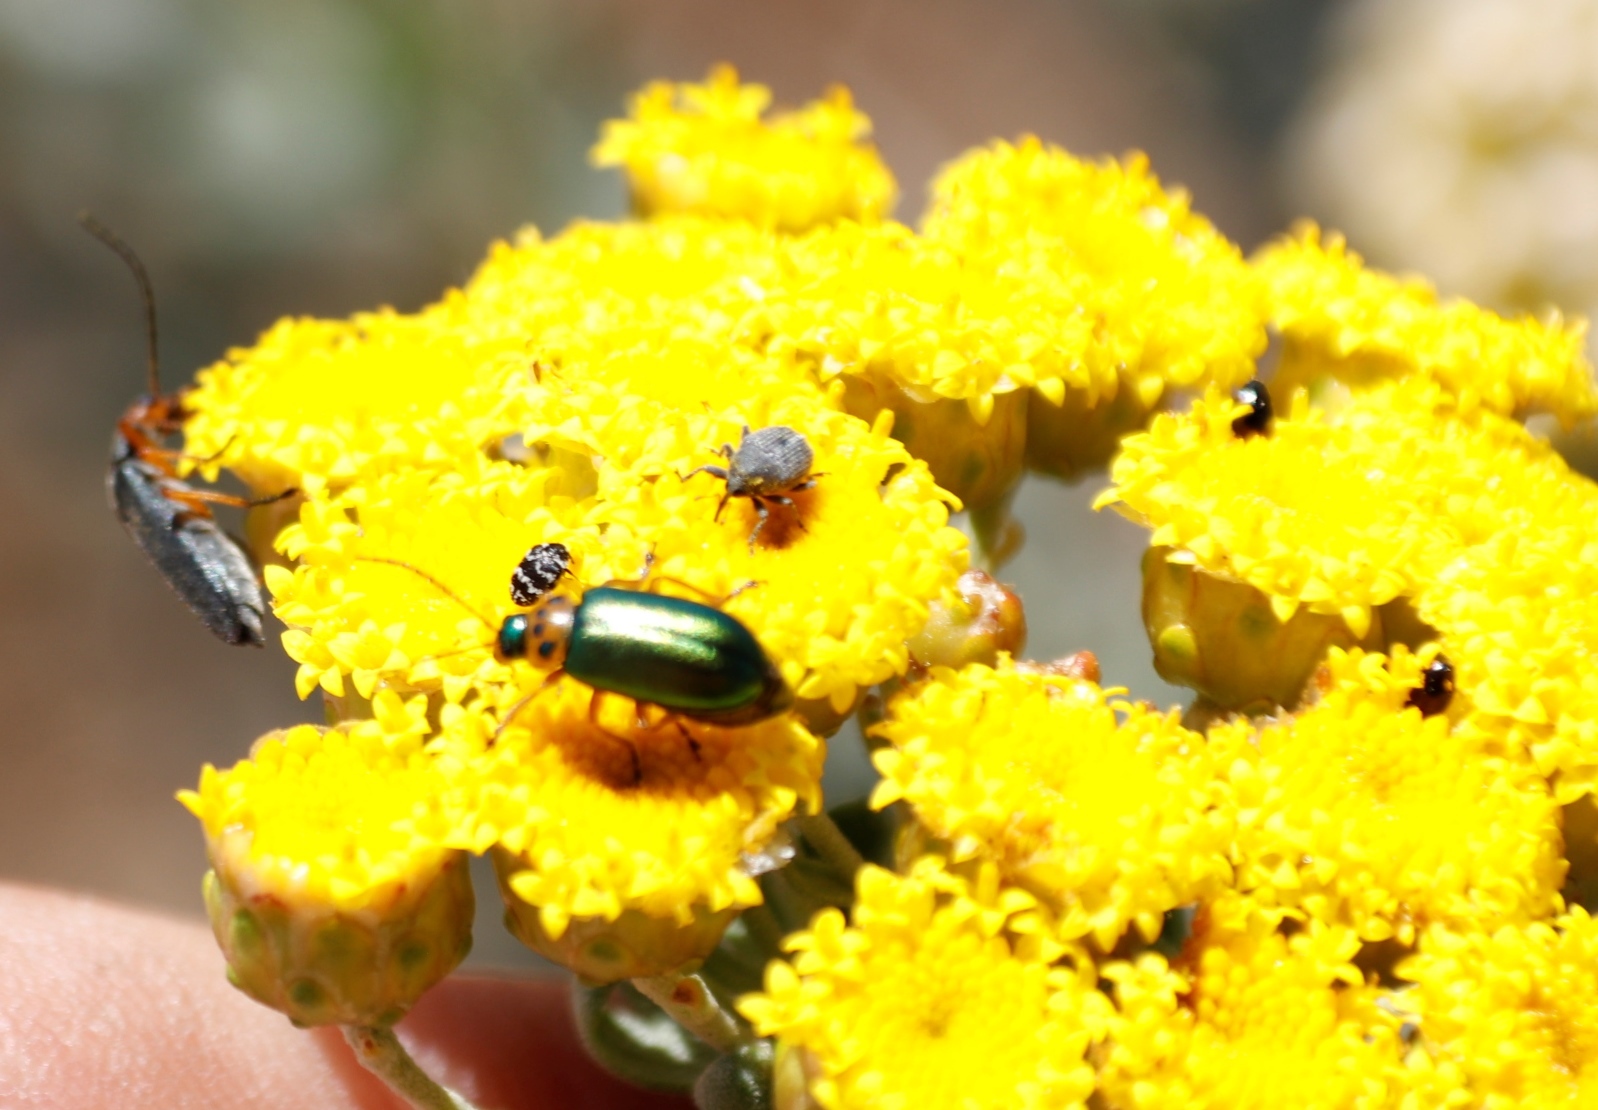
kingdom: Animalia
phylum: Arthropoda
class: Insecta
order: Coleoptera
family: Chrysomelidae
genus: Palaeophylia
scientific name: Palaeophylia
